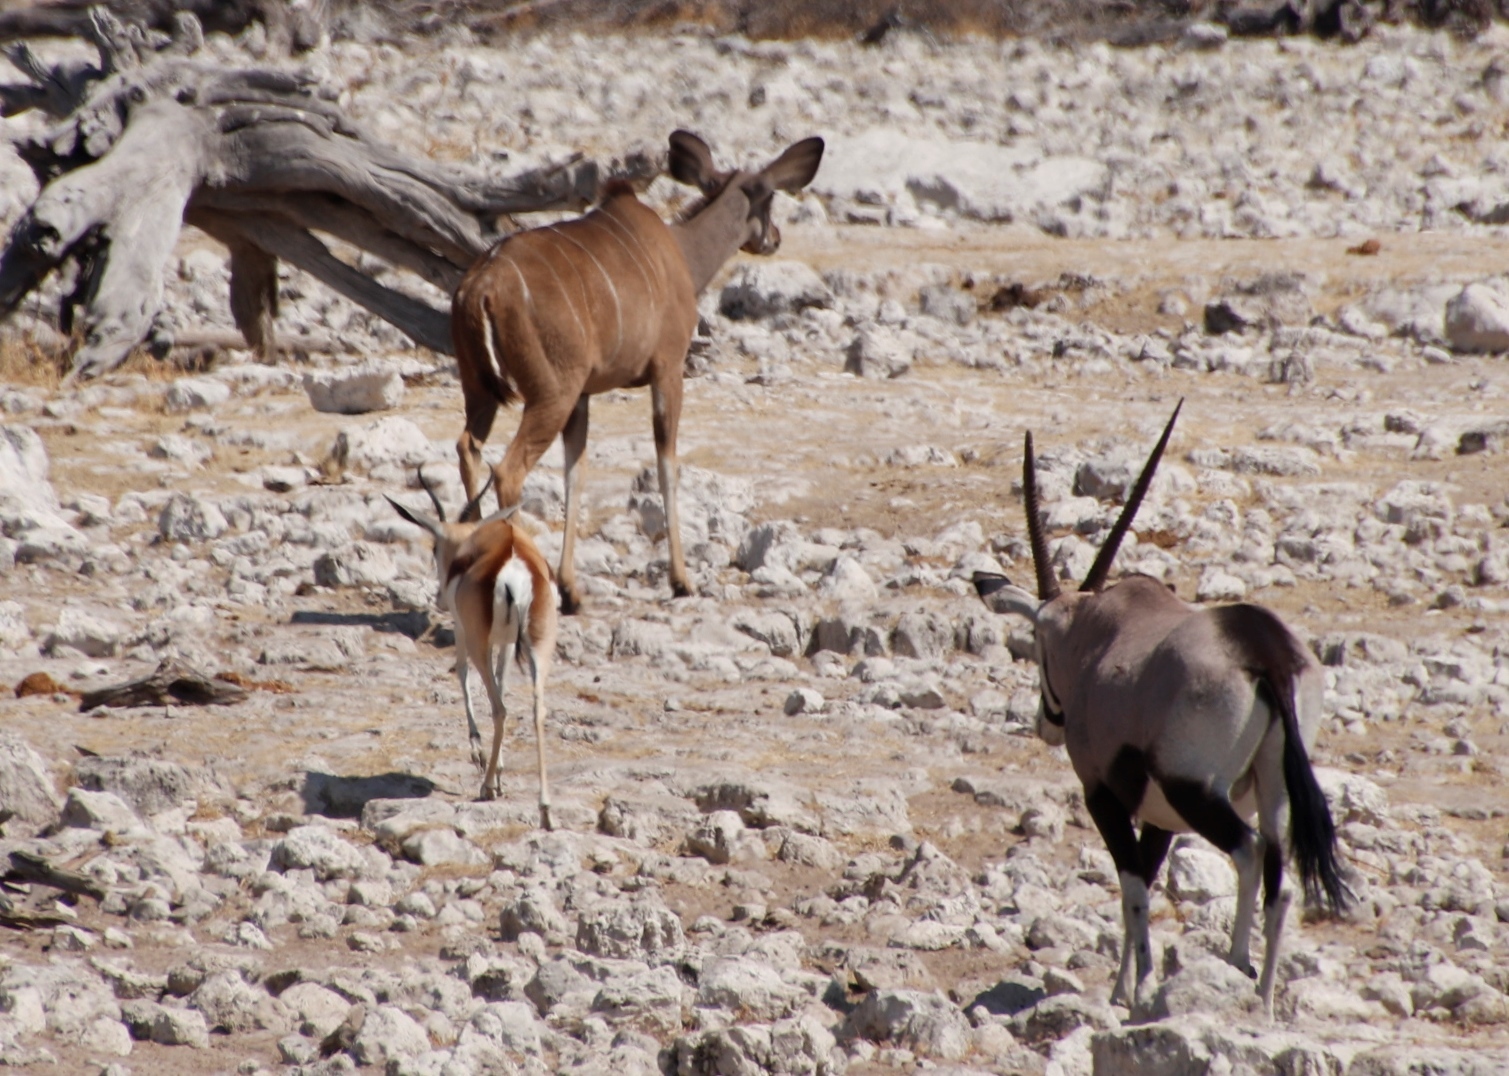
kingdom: Animalia
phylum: Chordata
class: Mammalia
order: Artiodactyla
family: Bovidae
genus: Tragelaphus
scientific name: Tragelaphus strepsiceros
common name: Greater kudu
